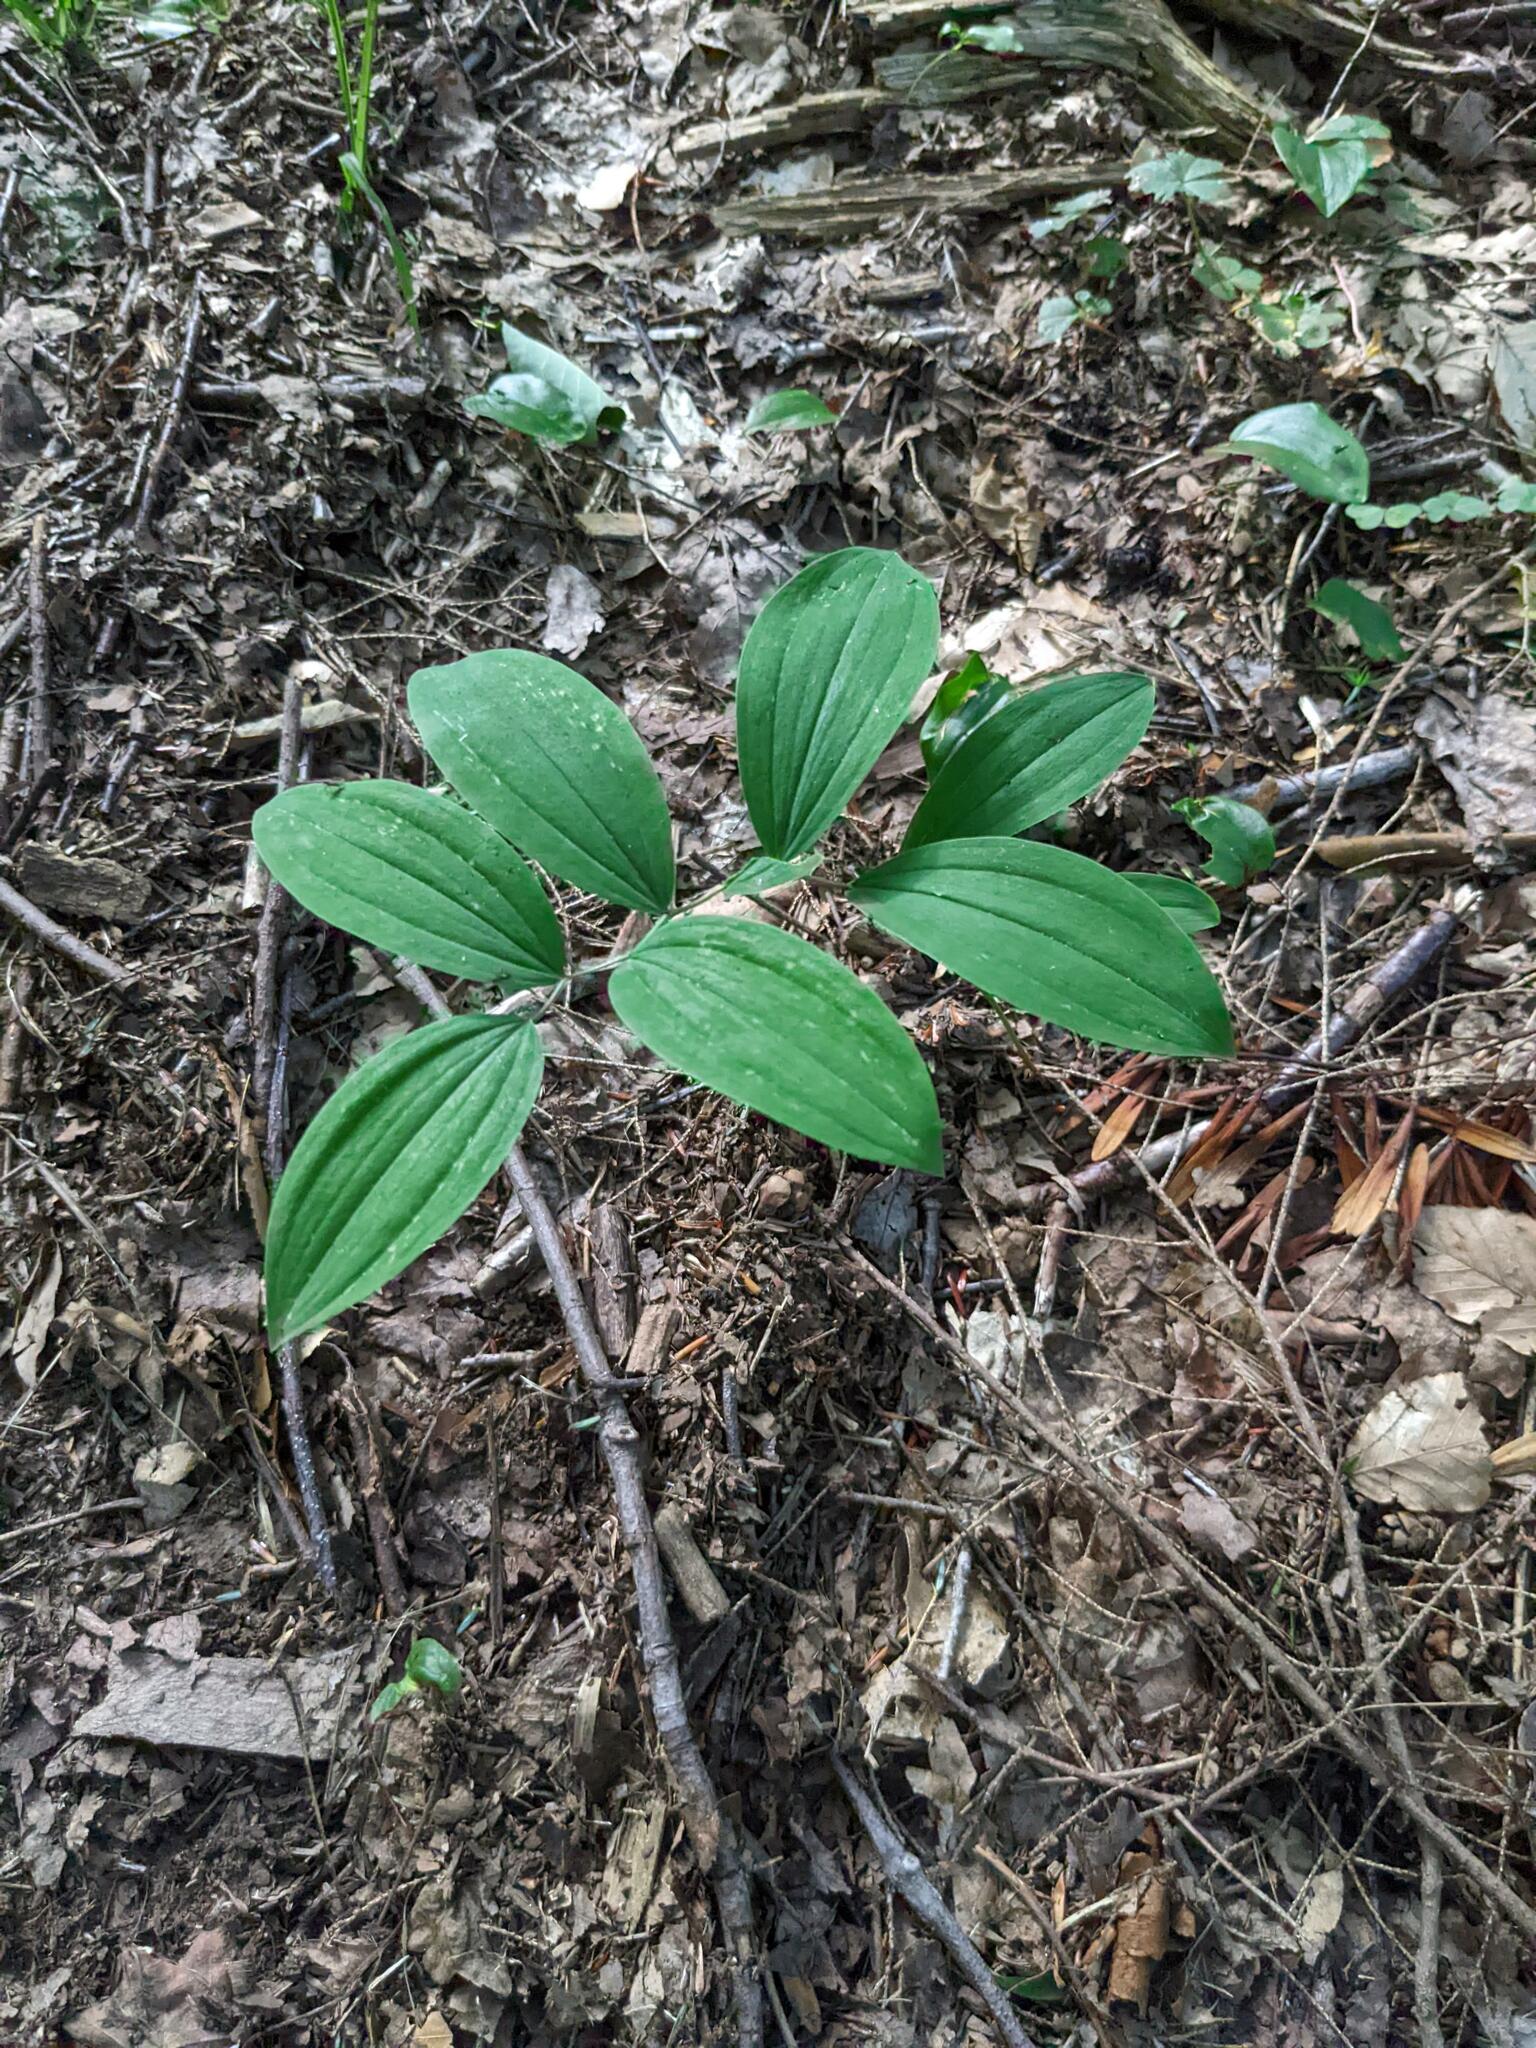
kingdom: Plantae
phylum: Tracheophyta
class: Liliopsida
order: Liliales
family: Colchicaceae
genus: Uvularia
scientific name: Uvularia sessilifolia
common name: Straw-lily
